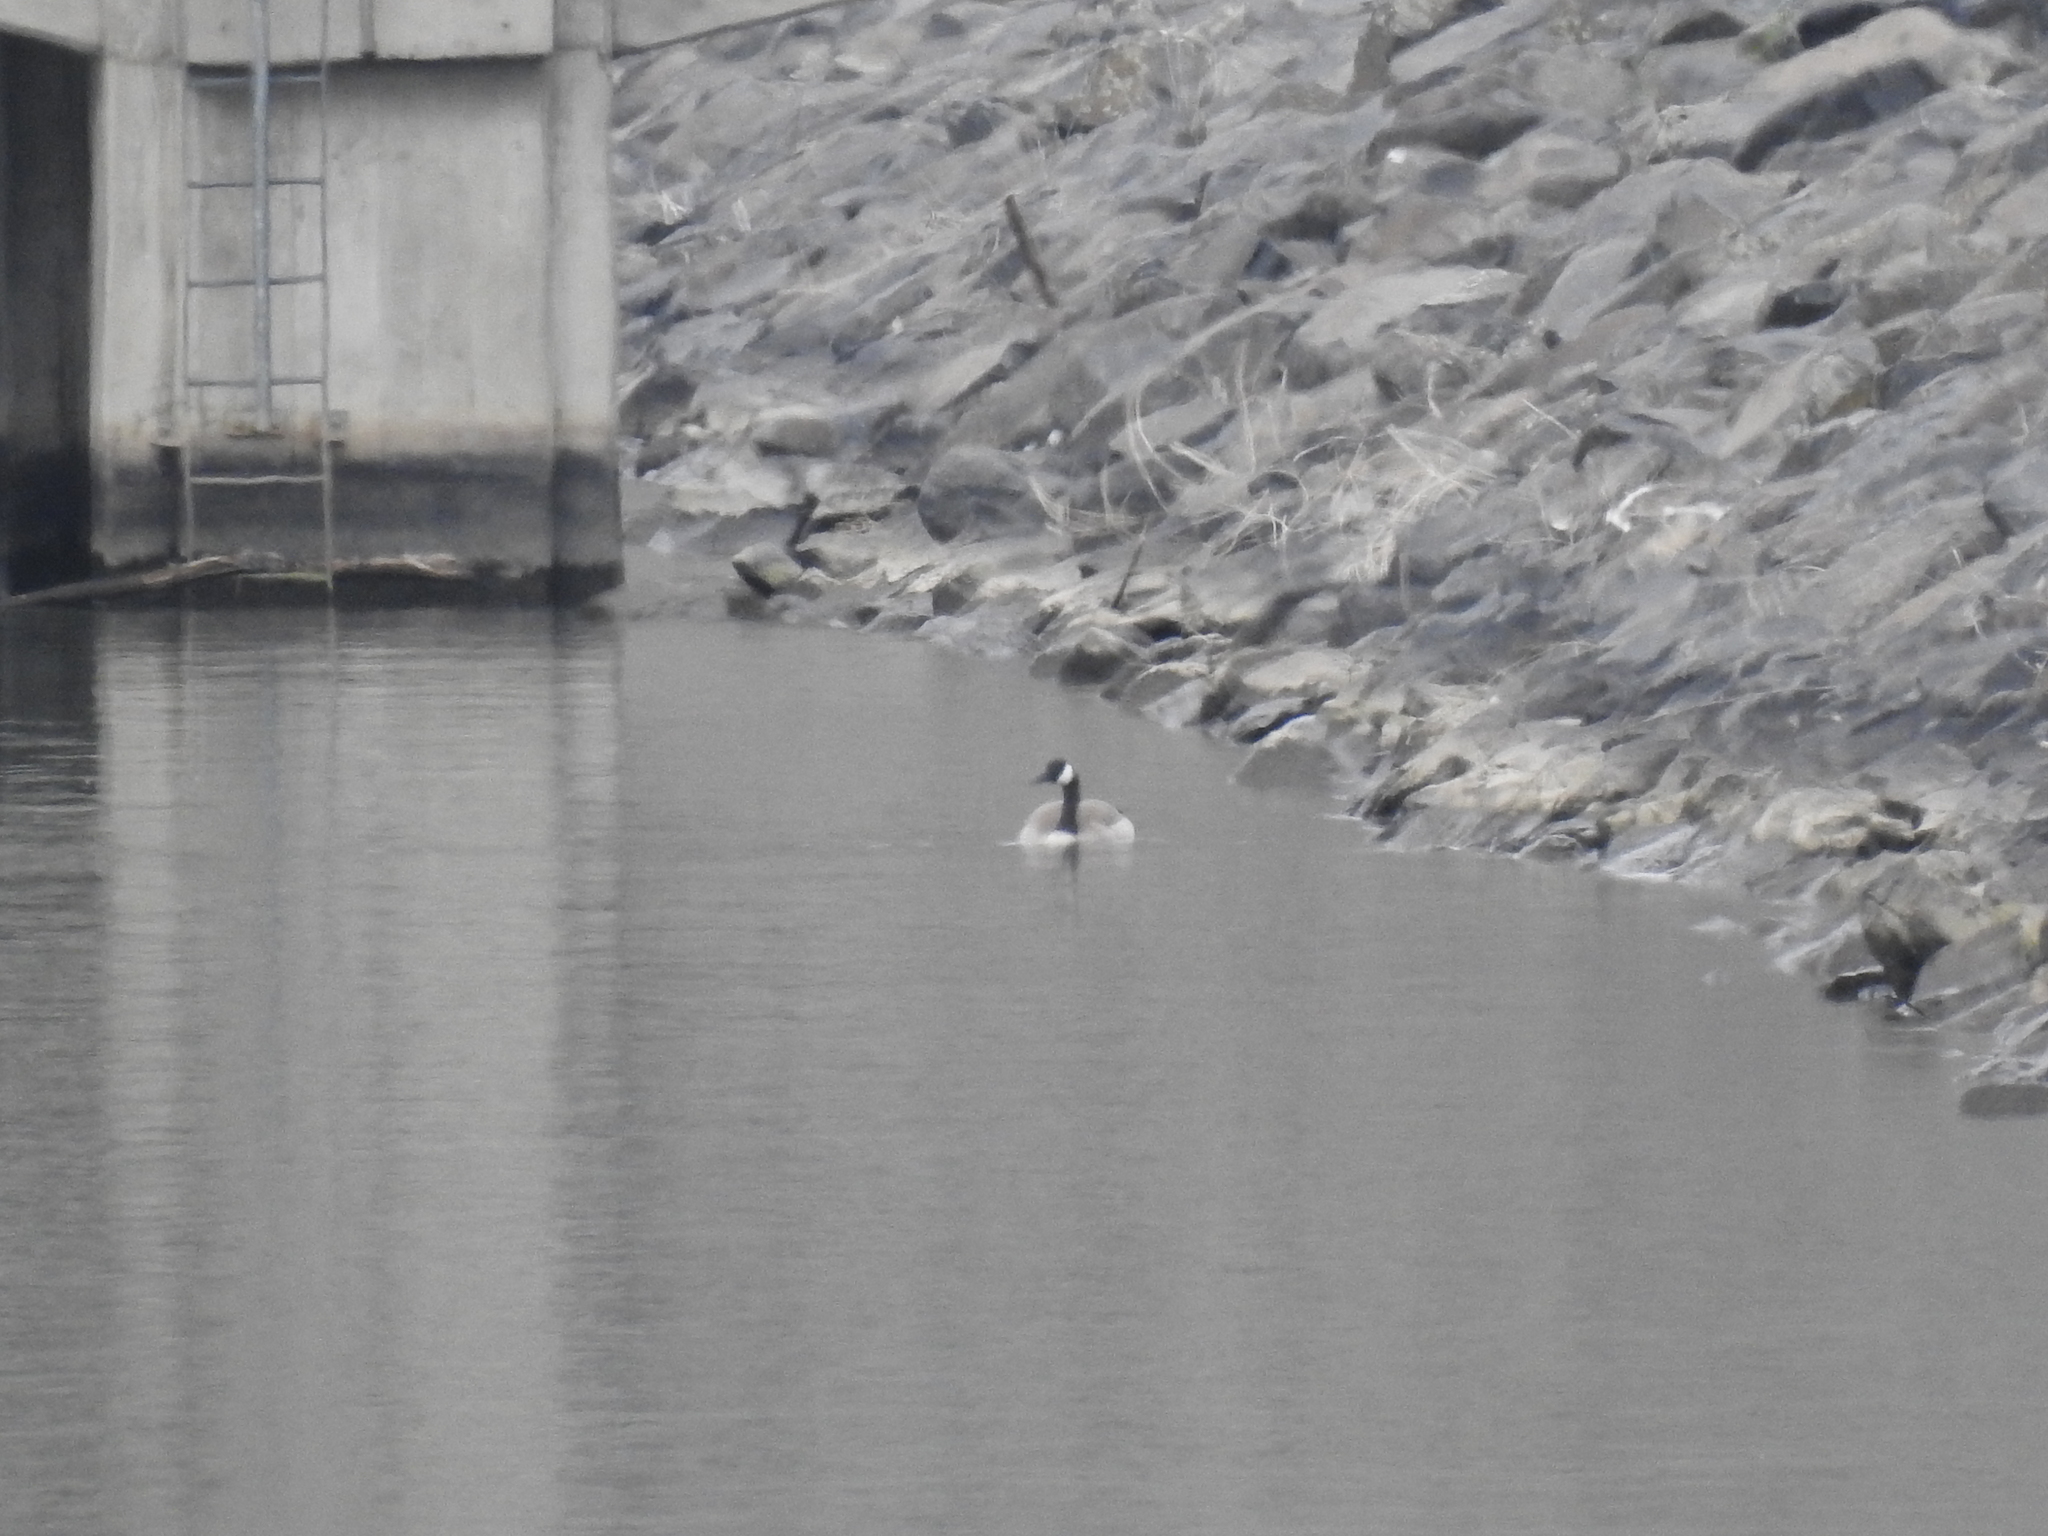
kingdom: Animalia
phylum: Chordata
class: Aves
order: Anseriformes
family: Anatidae
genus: Branta
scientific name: Branta canadensis
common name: Canada goose
